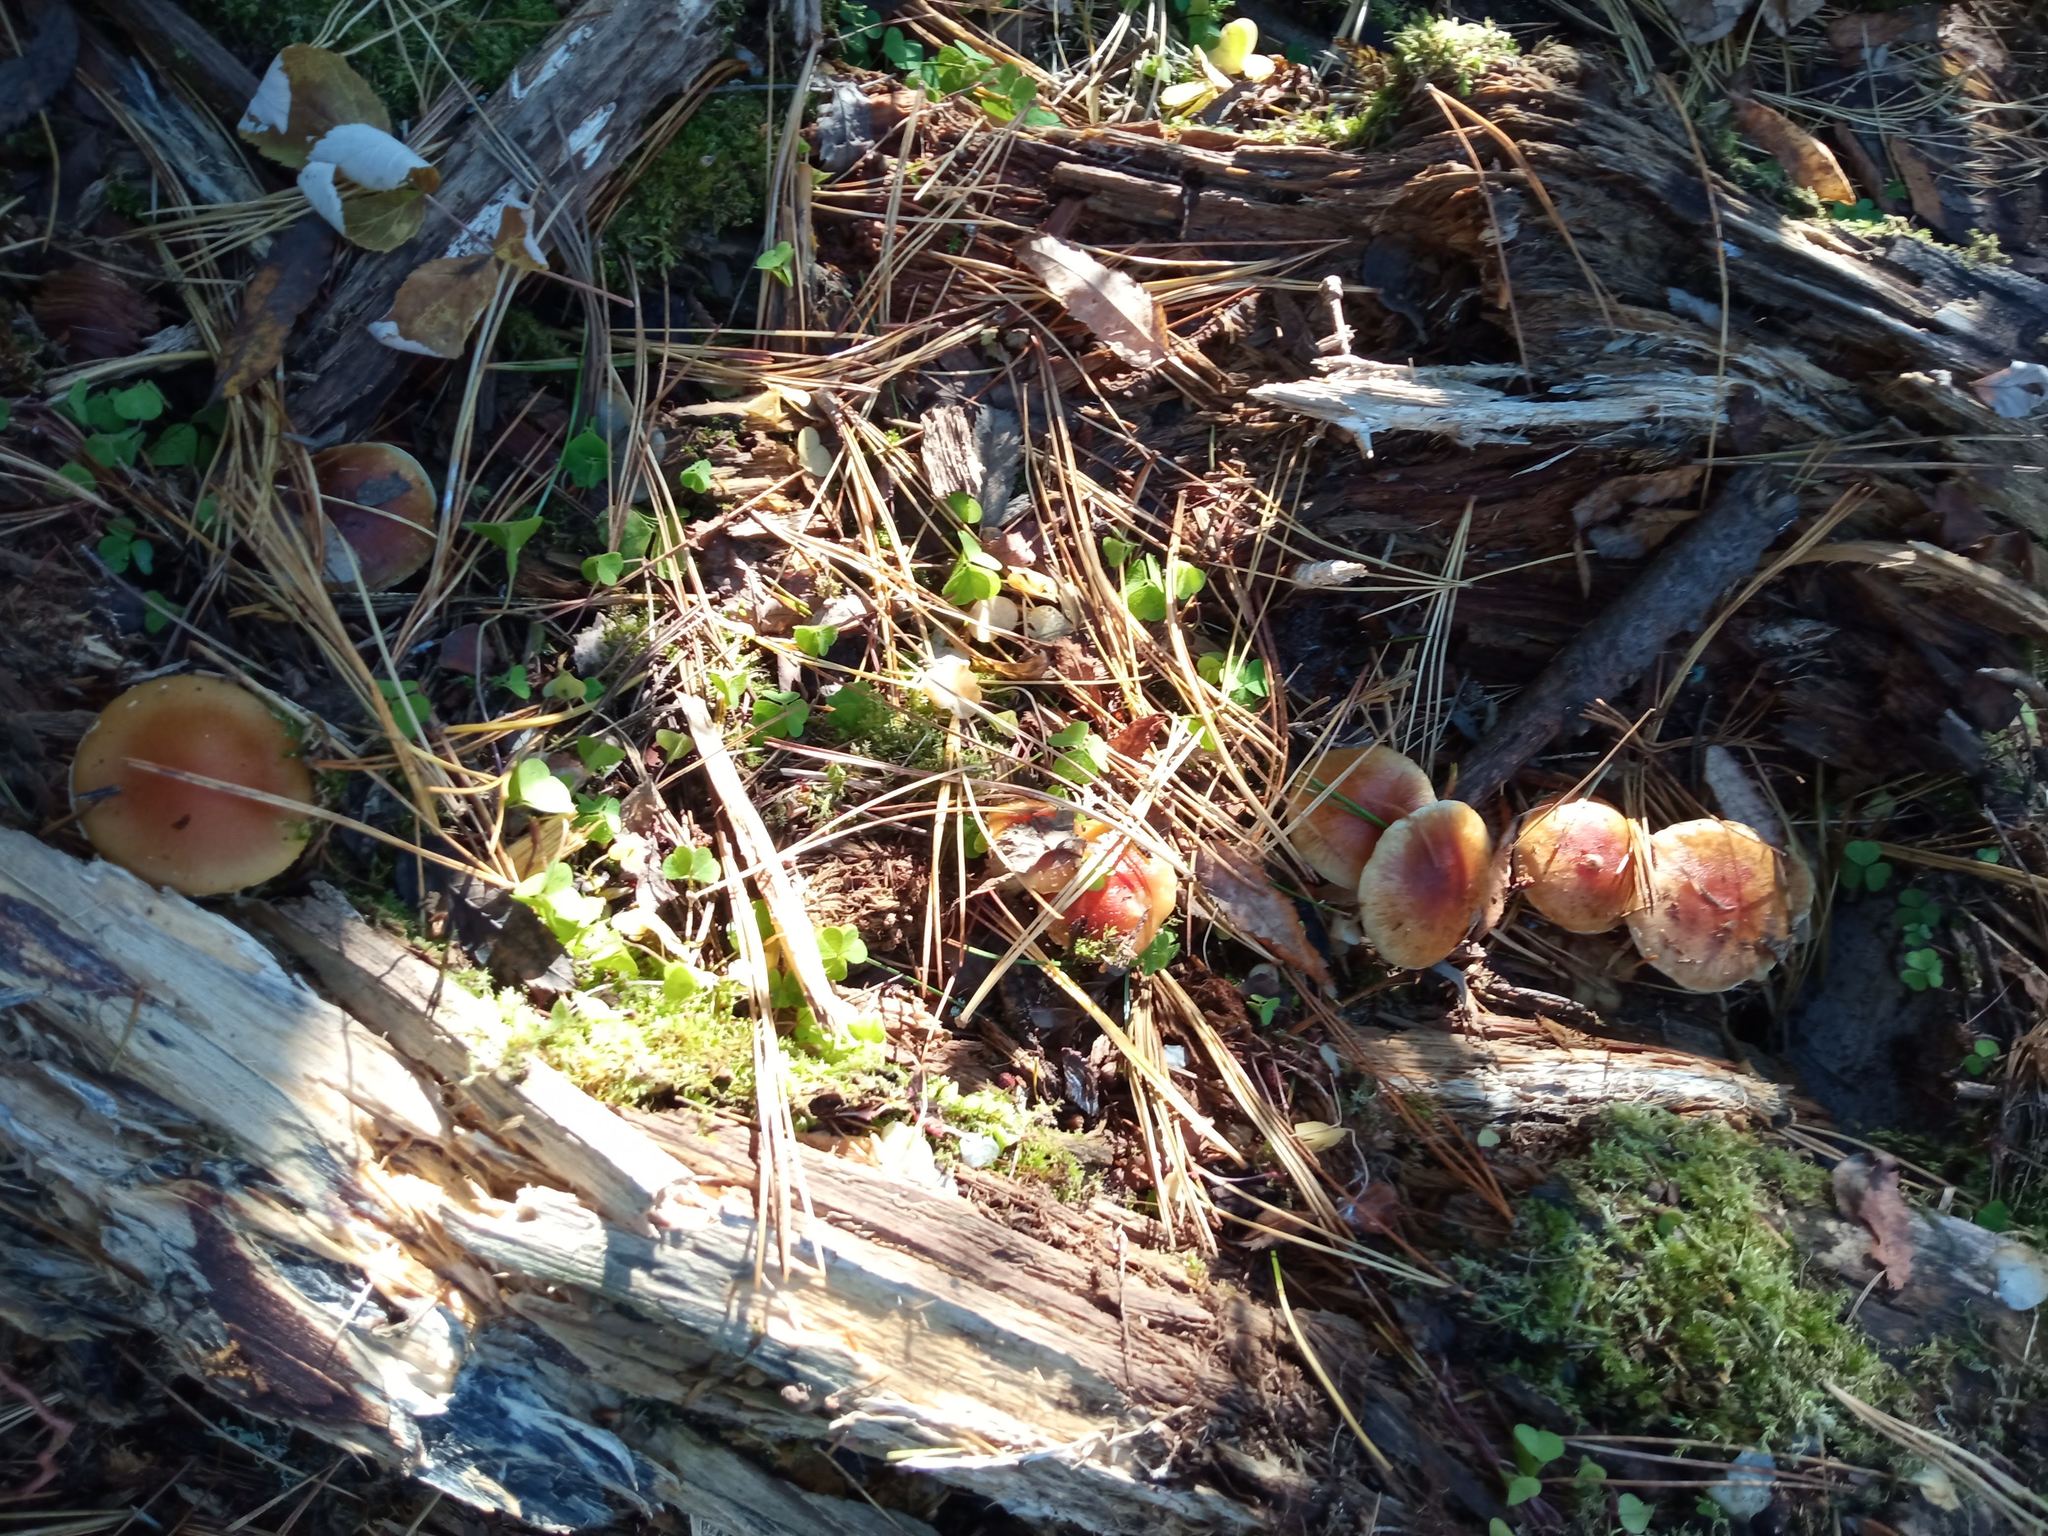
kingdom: Fungi
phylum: Basidiomycota
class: Agaricomycetes
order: Agaricales
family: Strophariaceae
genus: Hypholoma
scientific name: Hypholoma lateritium
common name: Brick caps
